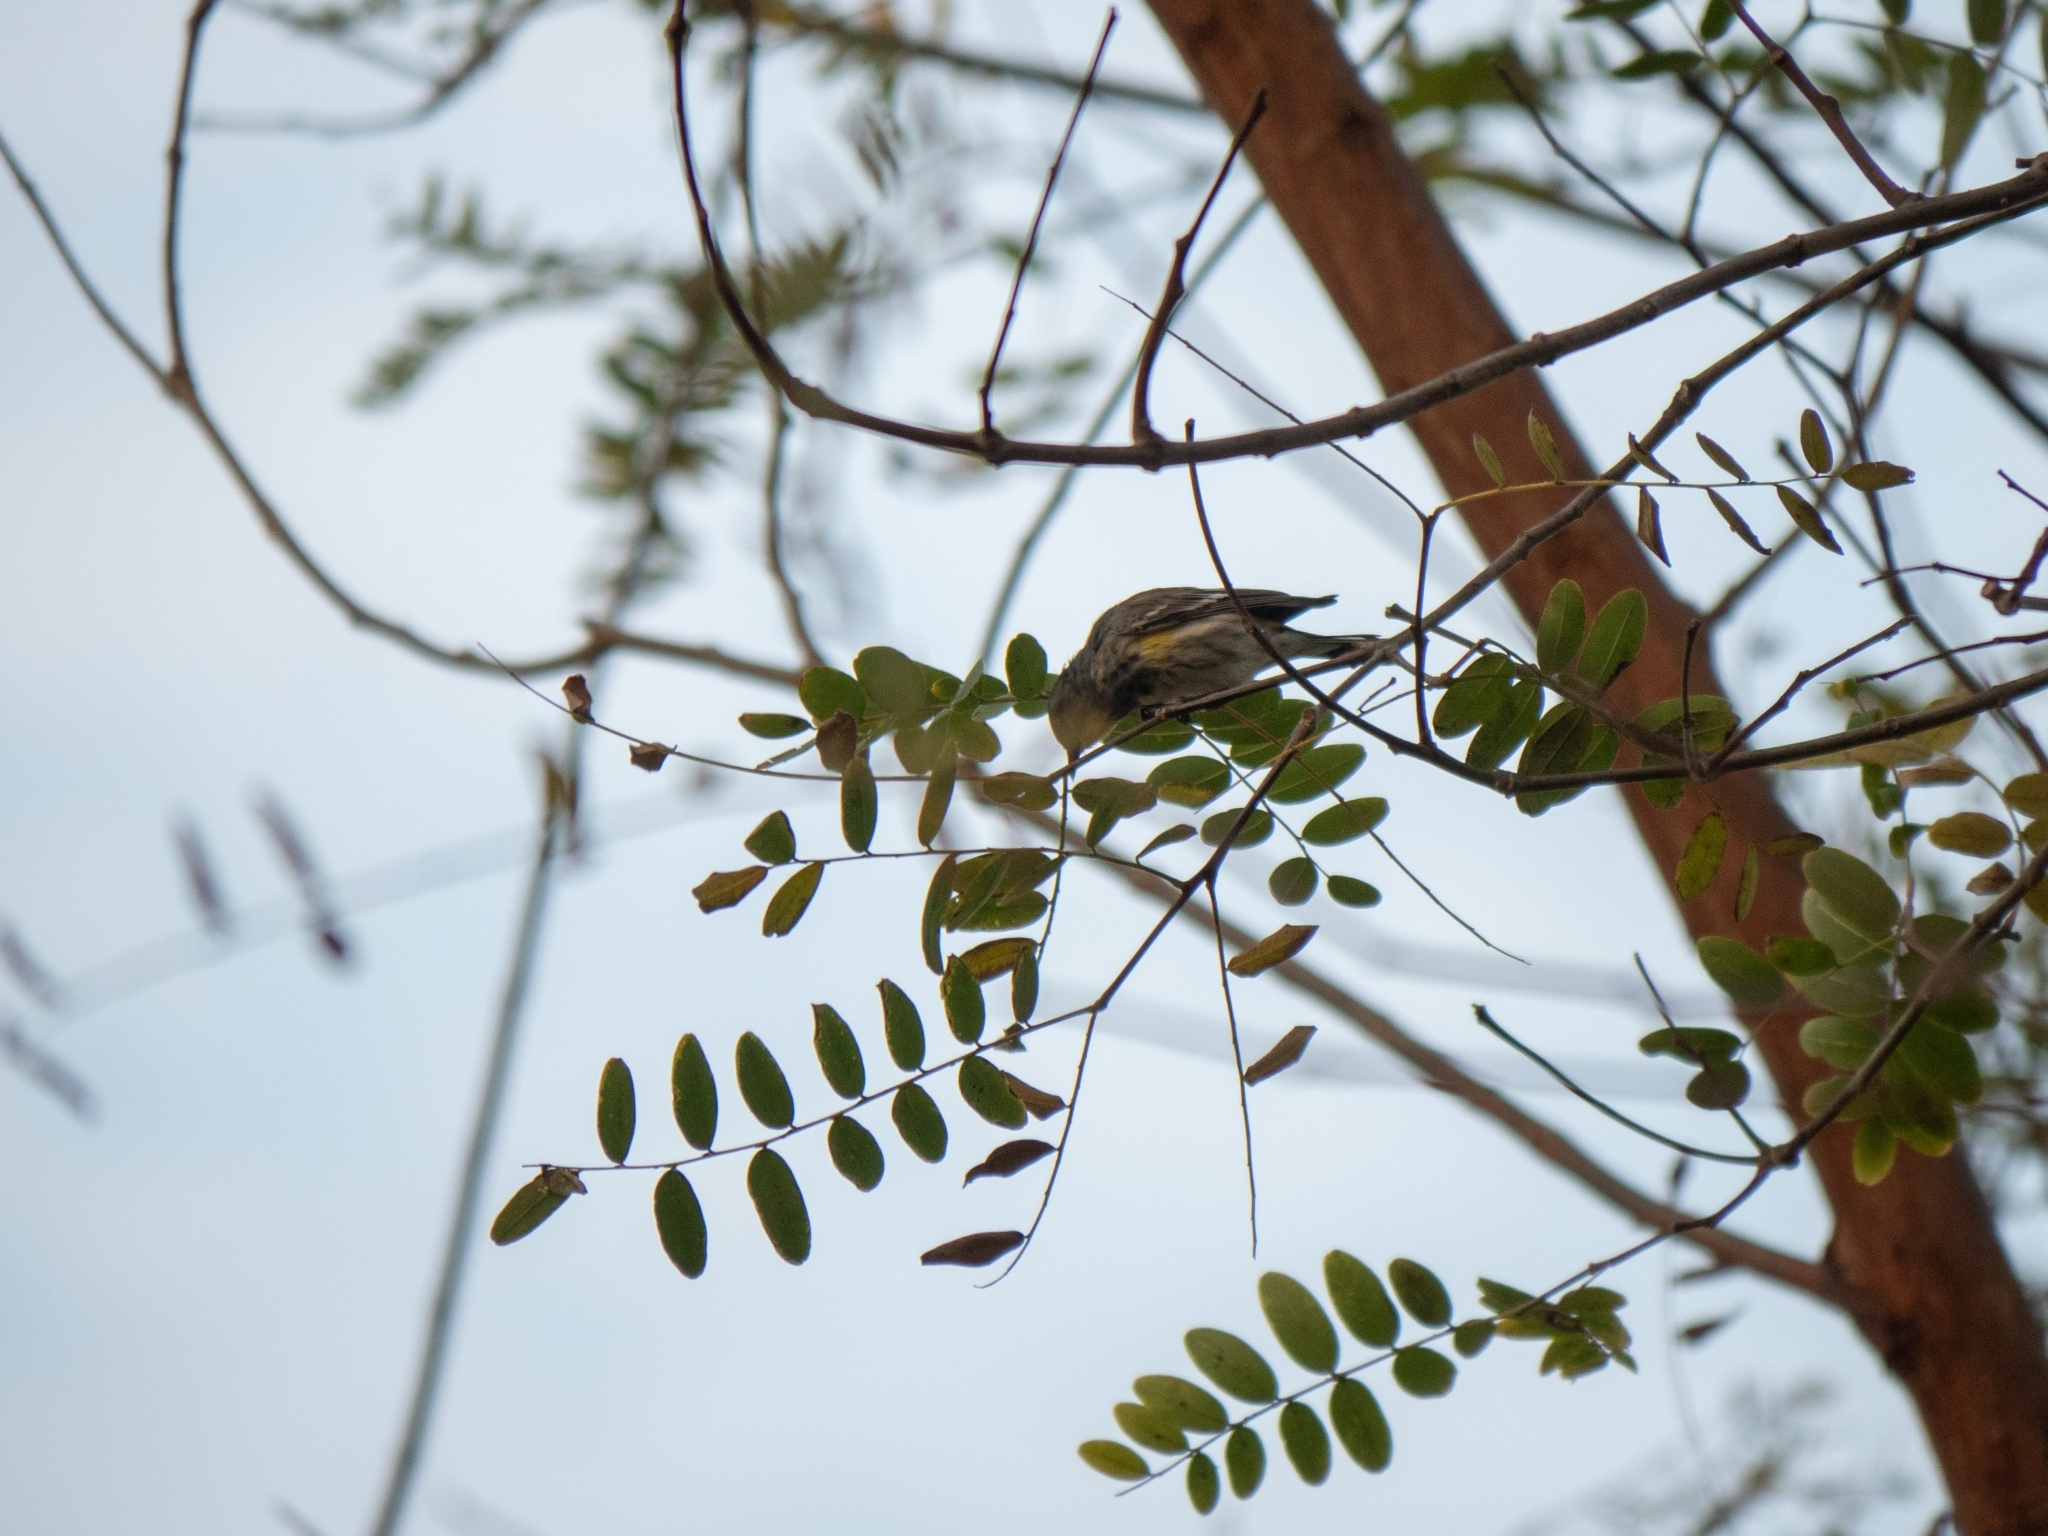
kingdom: Animalia
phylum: Chordata
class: Aves
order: Passeriformes
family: Parulidae
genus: Setophaga
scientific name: Setophaga coronata
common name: Myrtle warbler
